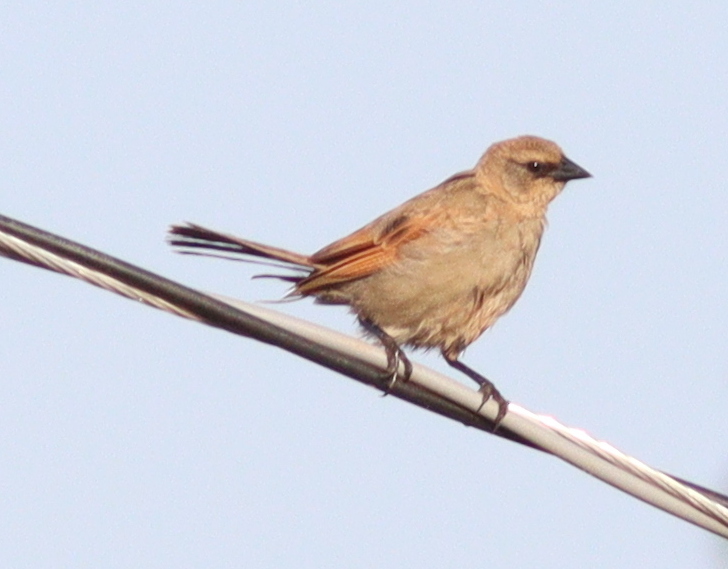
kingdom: Animalia
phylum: Chordata
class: Aves
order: Passeriformes
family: Icteridae
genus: Agelaioides
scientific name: Agelaioides badius
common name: Baywing
